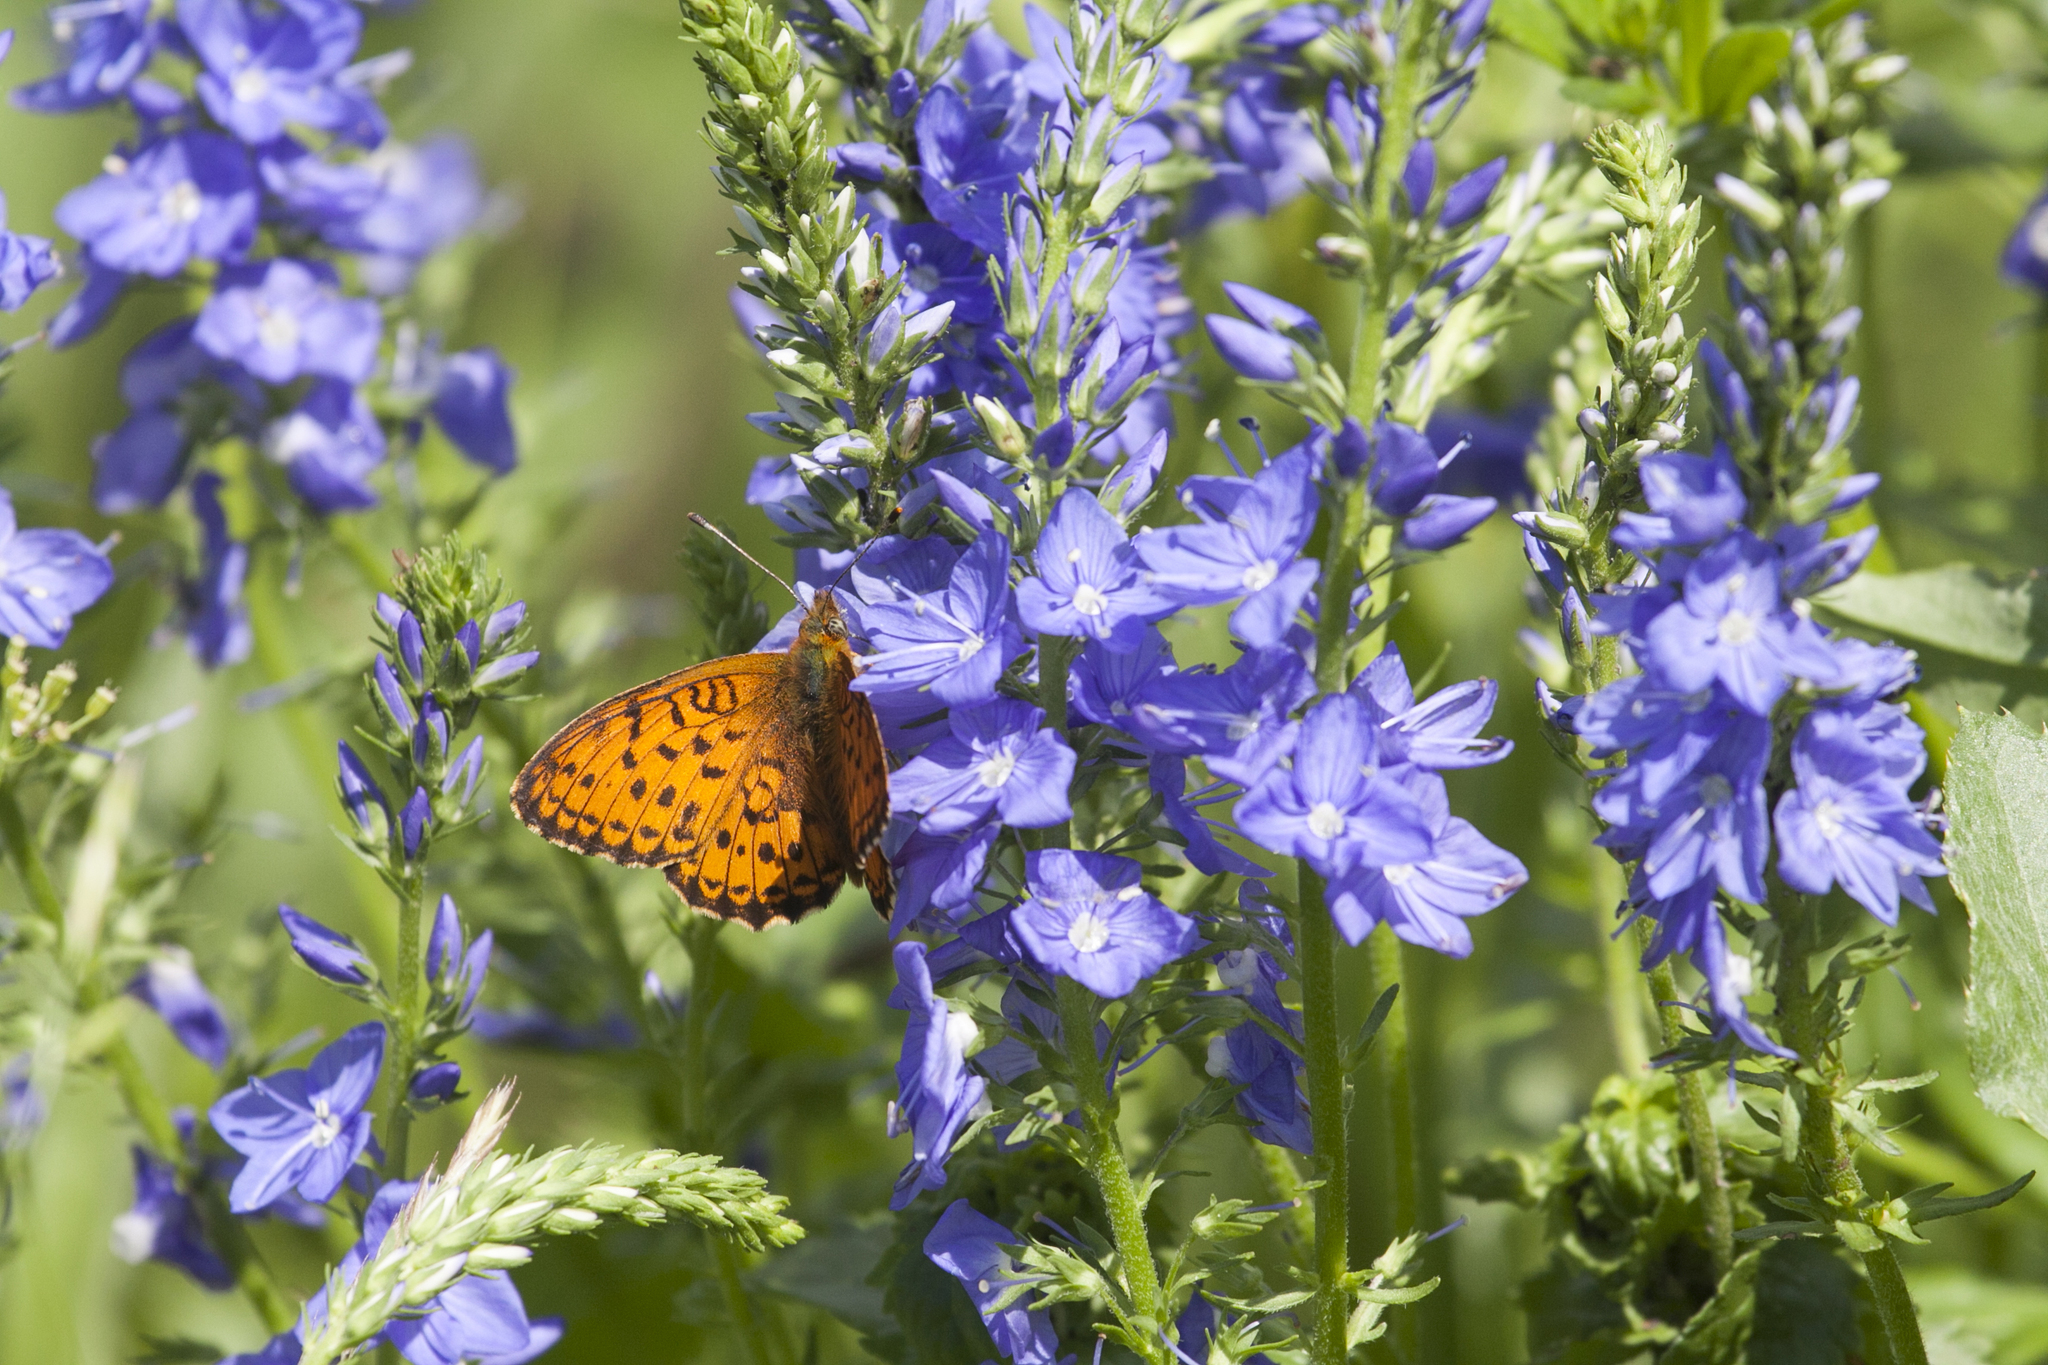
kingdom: Animalia
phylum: Arthropoda
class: Insecta
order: Lepidoptera
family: Nymphalidae
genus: Brenthis
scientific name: Brenthis ino
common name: Lesser marbled fritillary
